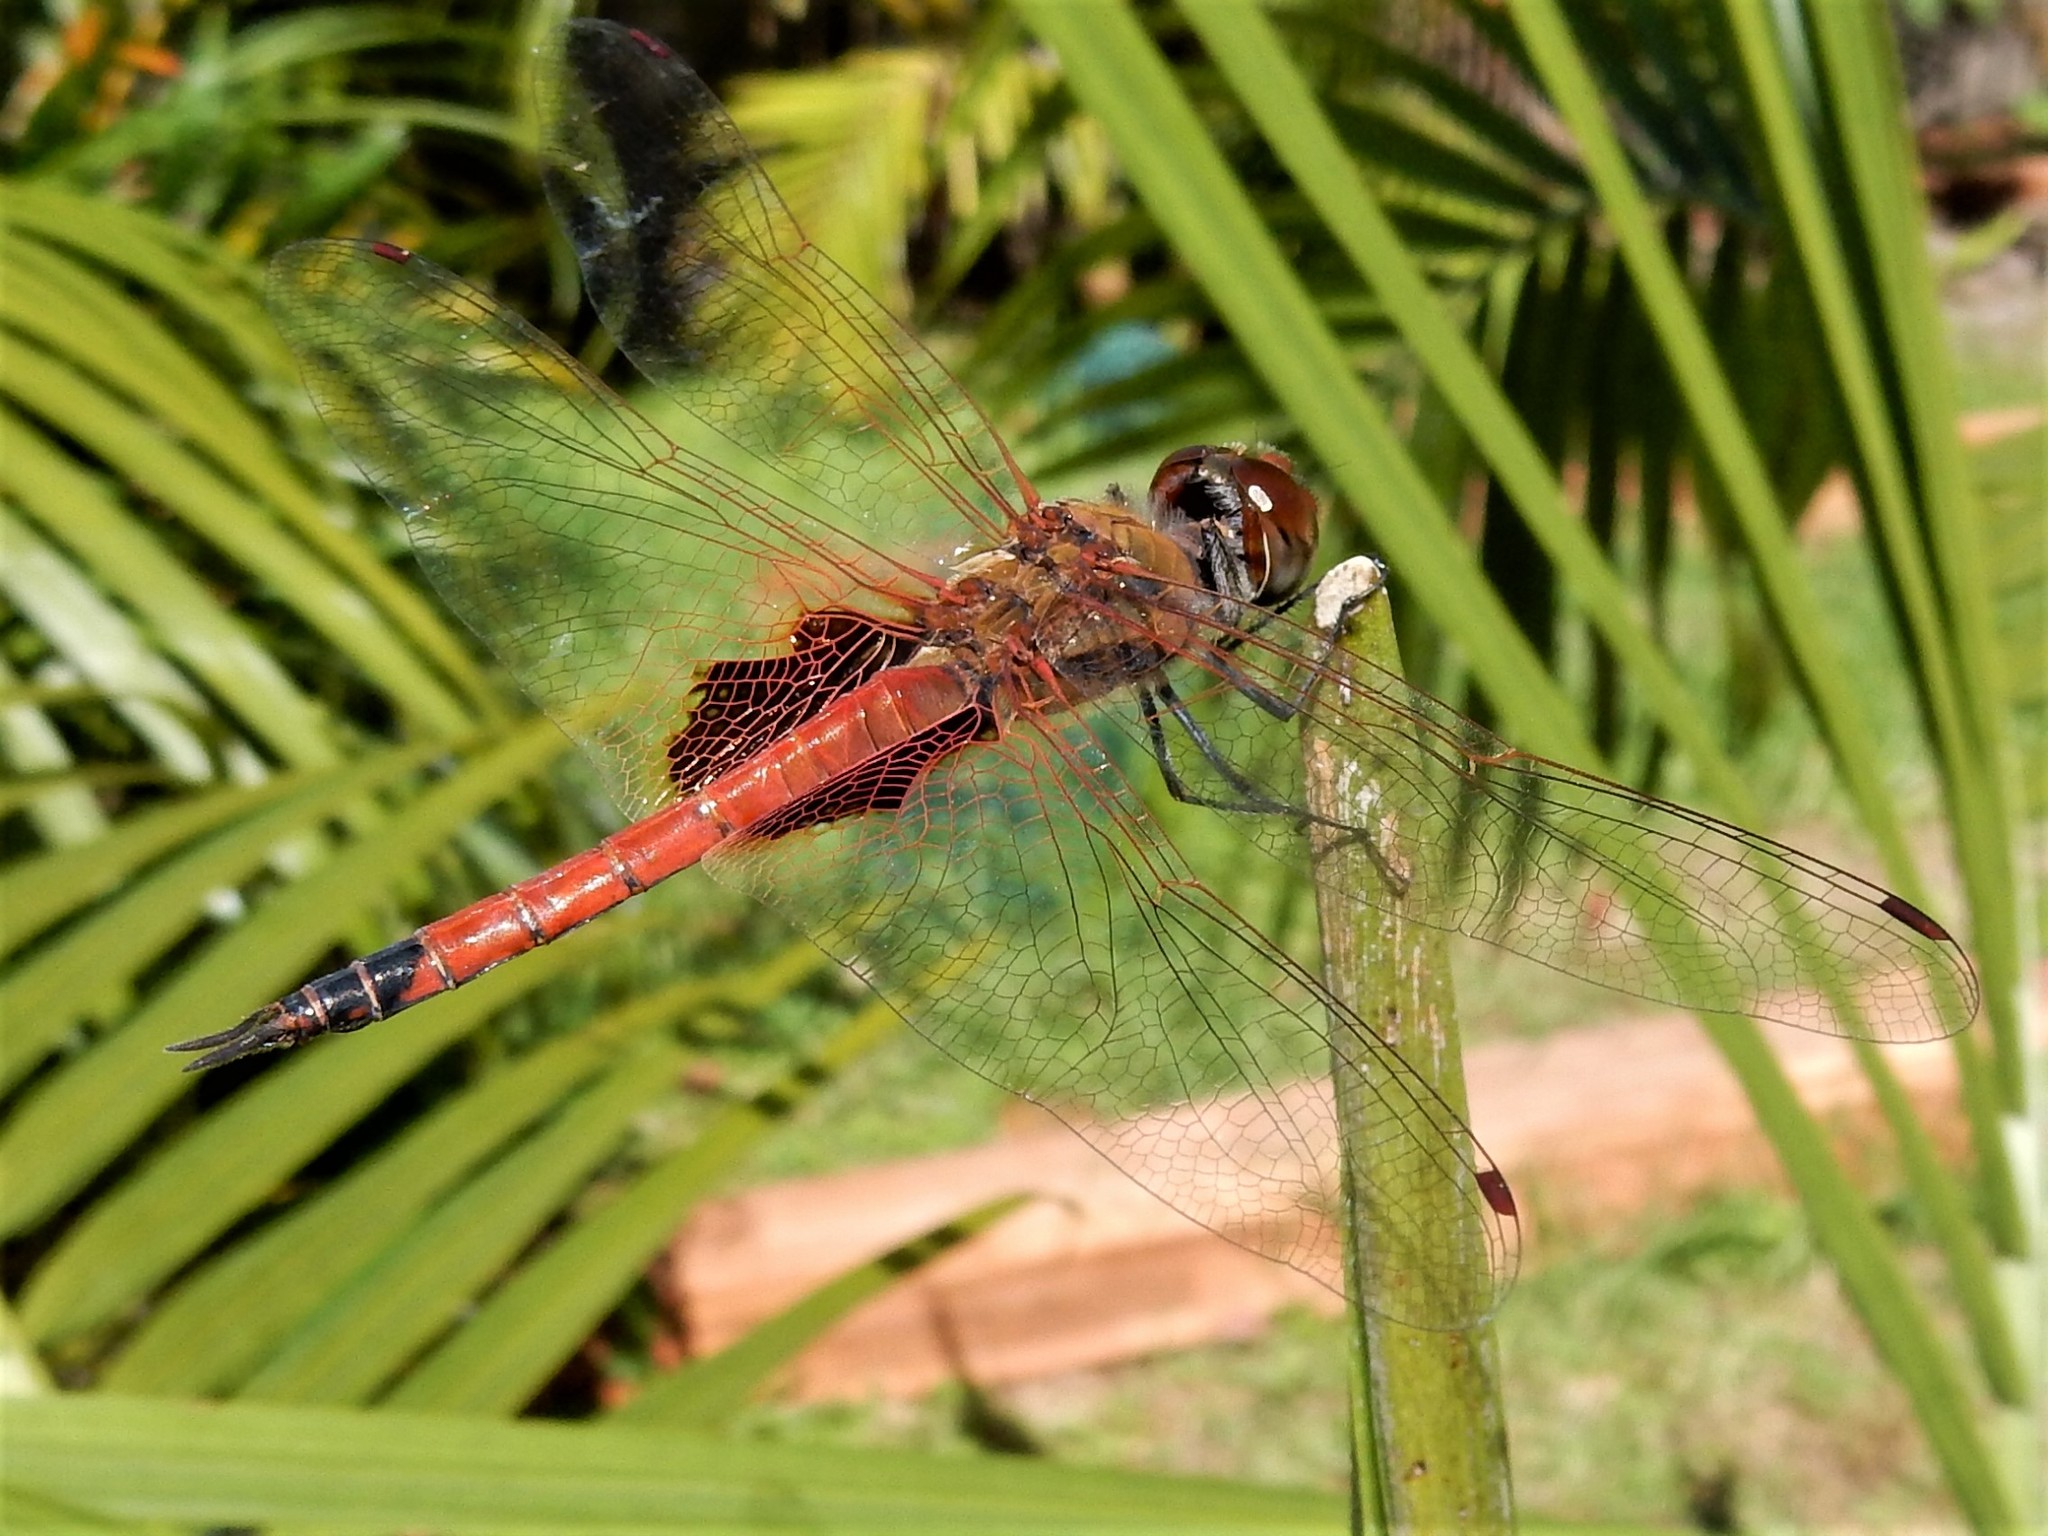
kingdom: Animalia
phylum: Arthropoda
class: Insecta
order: Odonata
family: Libellulidae
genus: Tramea
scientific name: Tramea loewii
